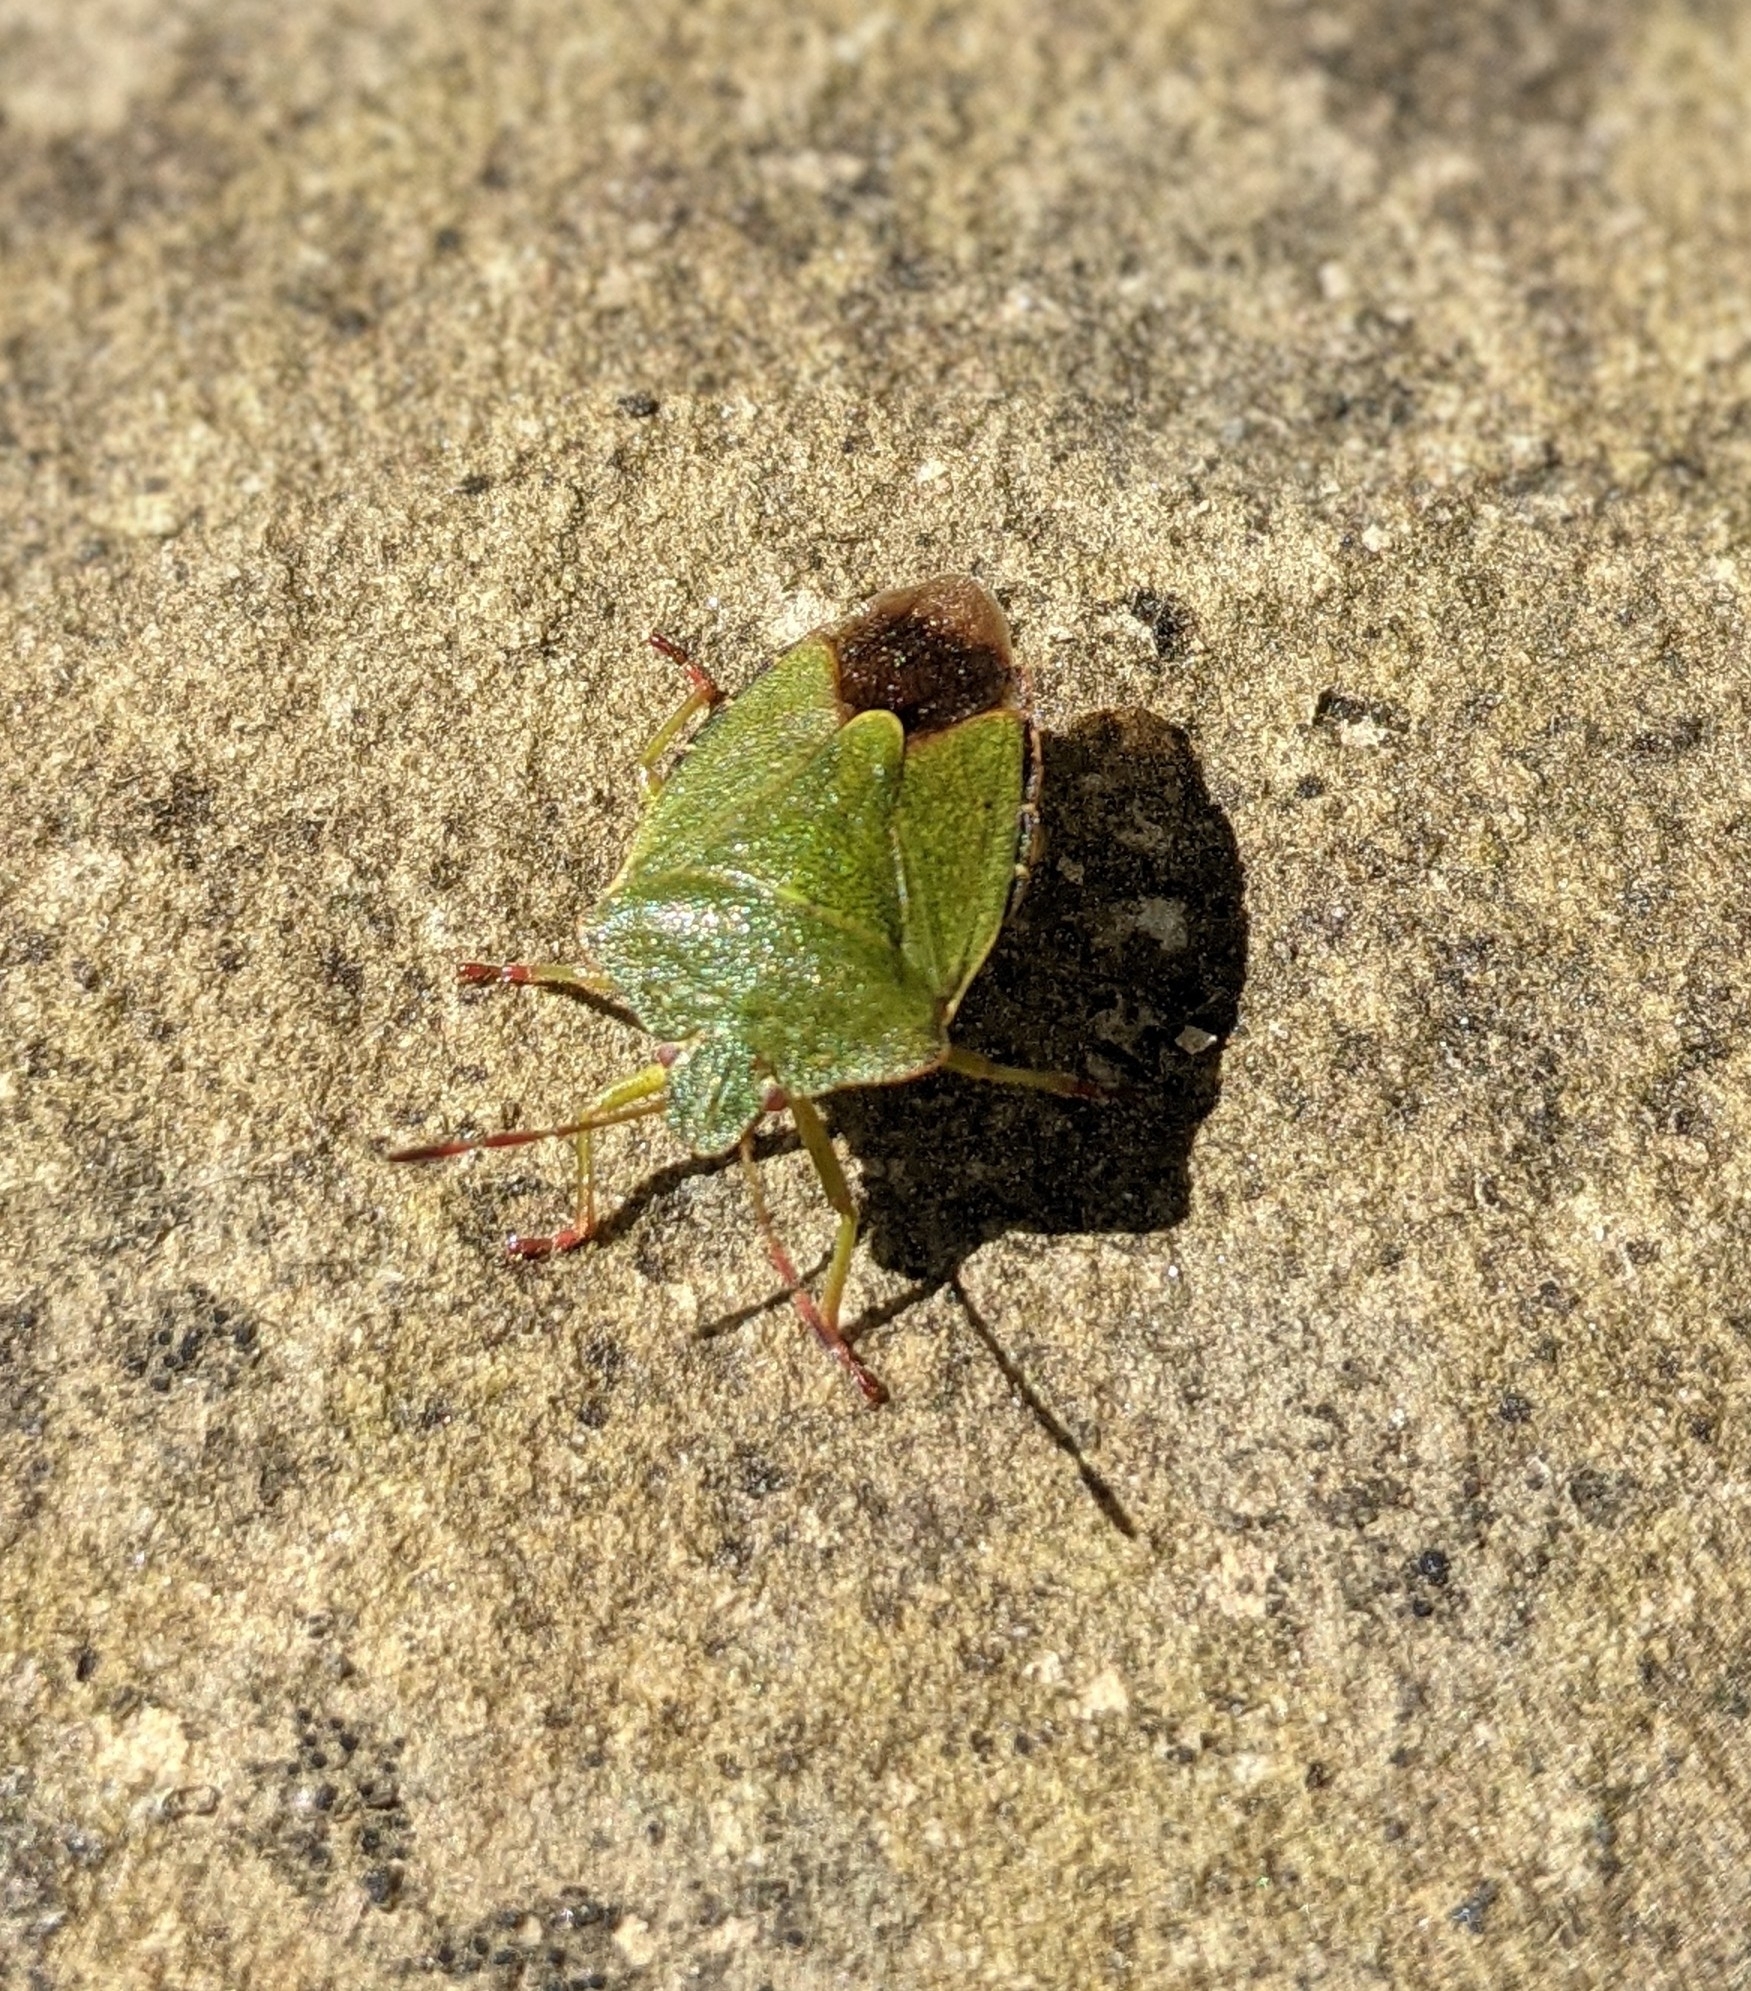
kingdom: Animalia
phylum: Arthropoda
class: Insecta
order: Hemiptera
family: Pentatomidae
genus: Palomena
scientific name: Palomena prasina
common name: Green shieldbug
